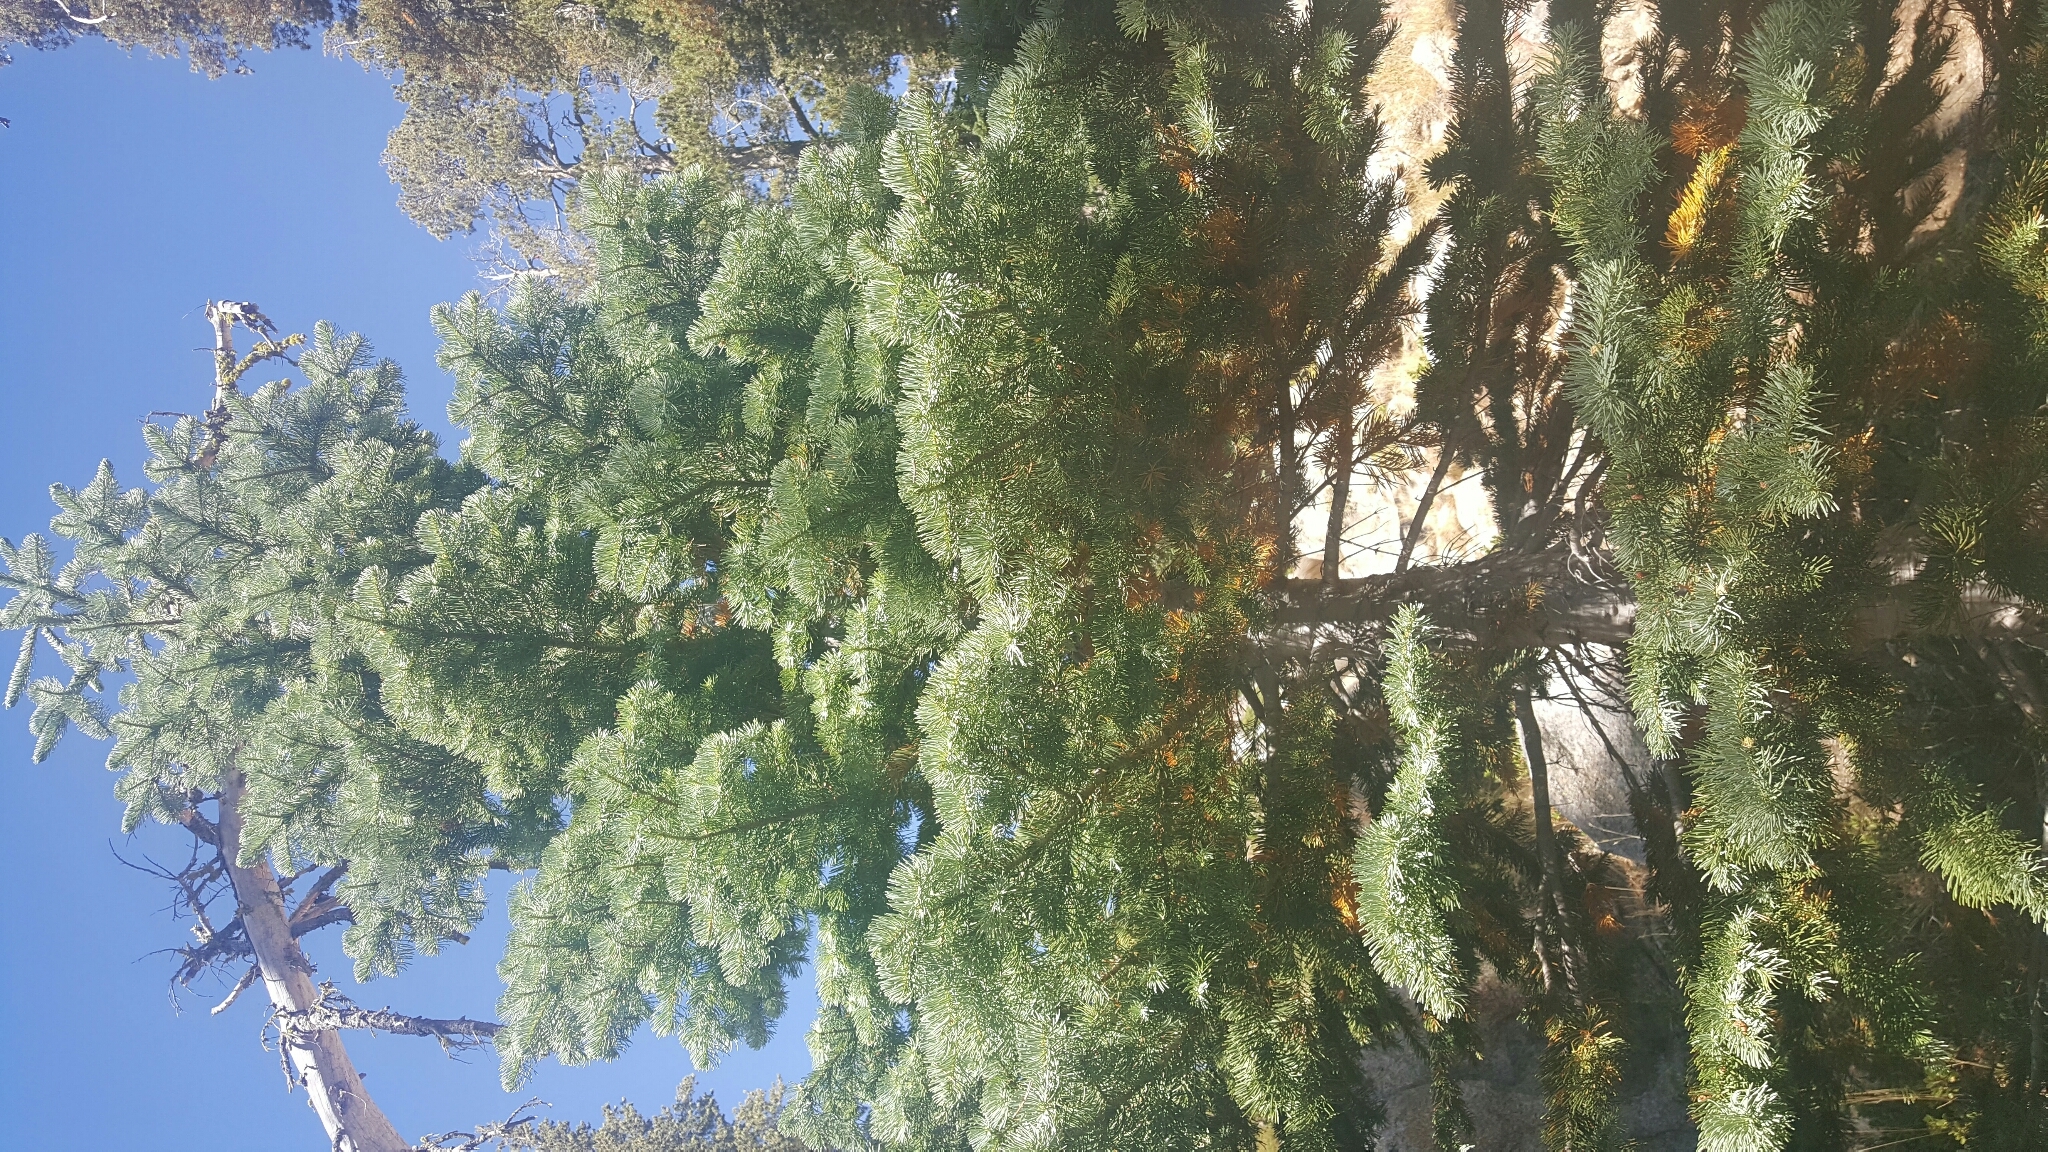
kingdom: Plantae
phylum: Tracheophyta
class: Pinopsida
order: Pinales
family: Pinaceae
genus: Abies
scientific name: Abies magnifica bis
